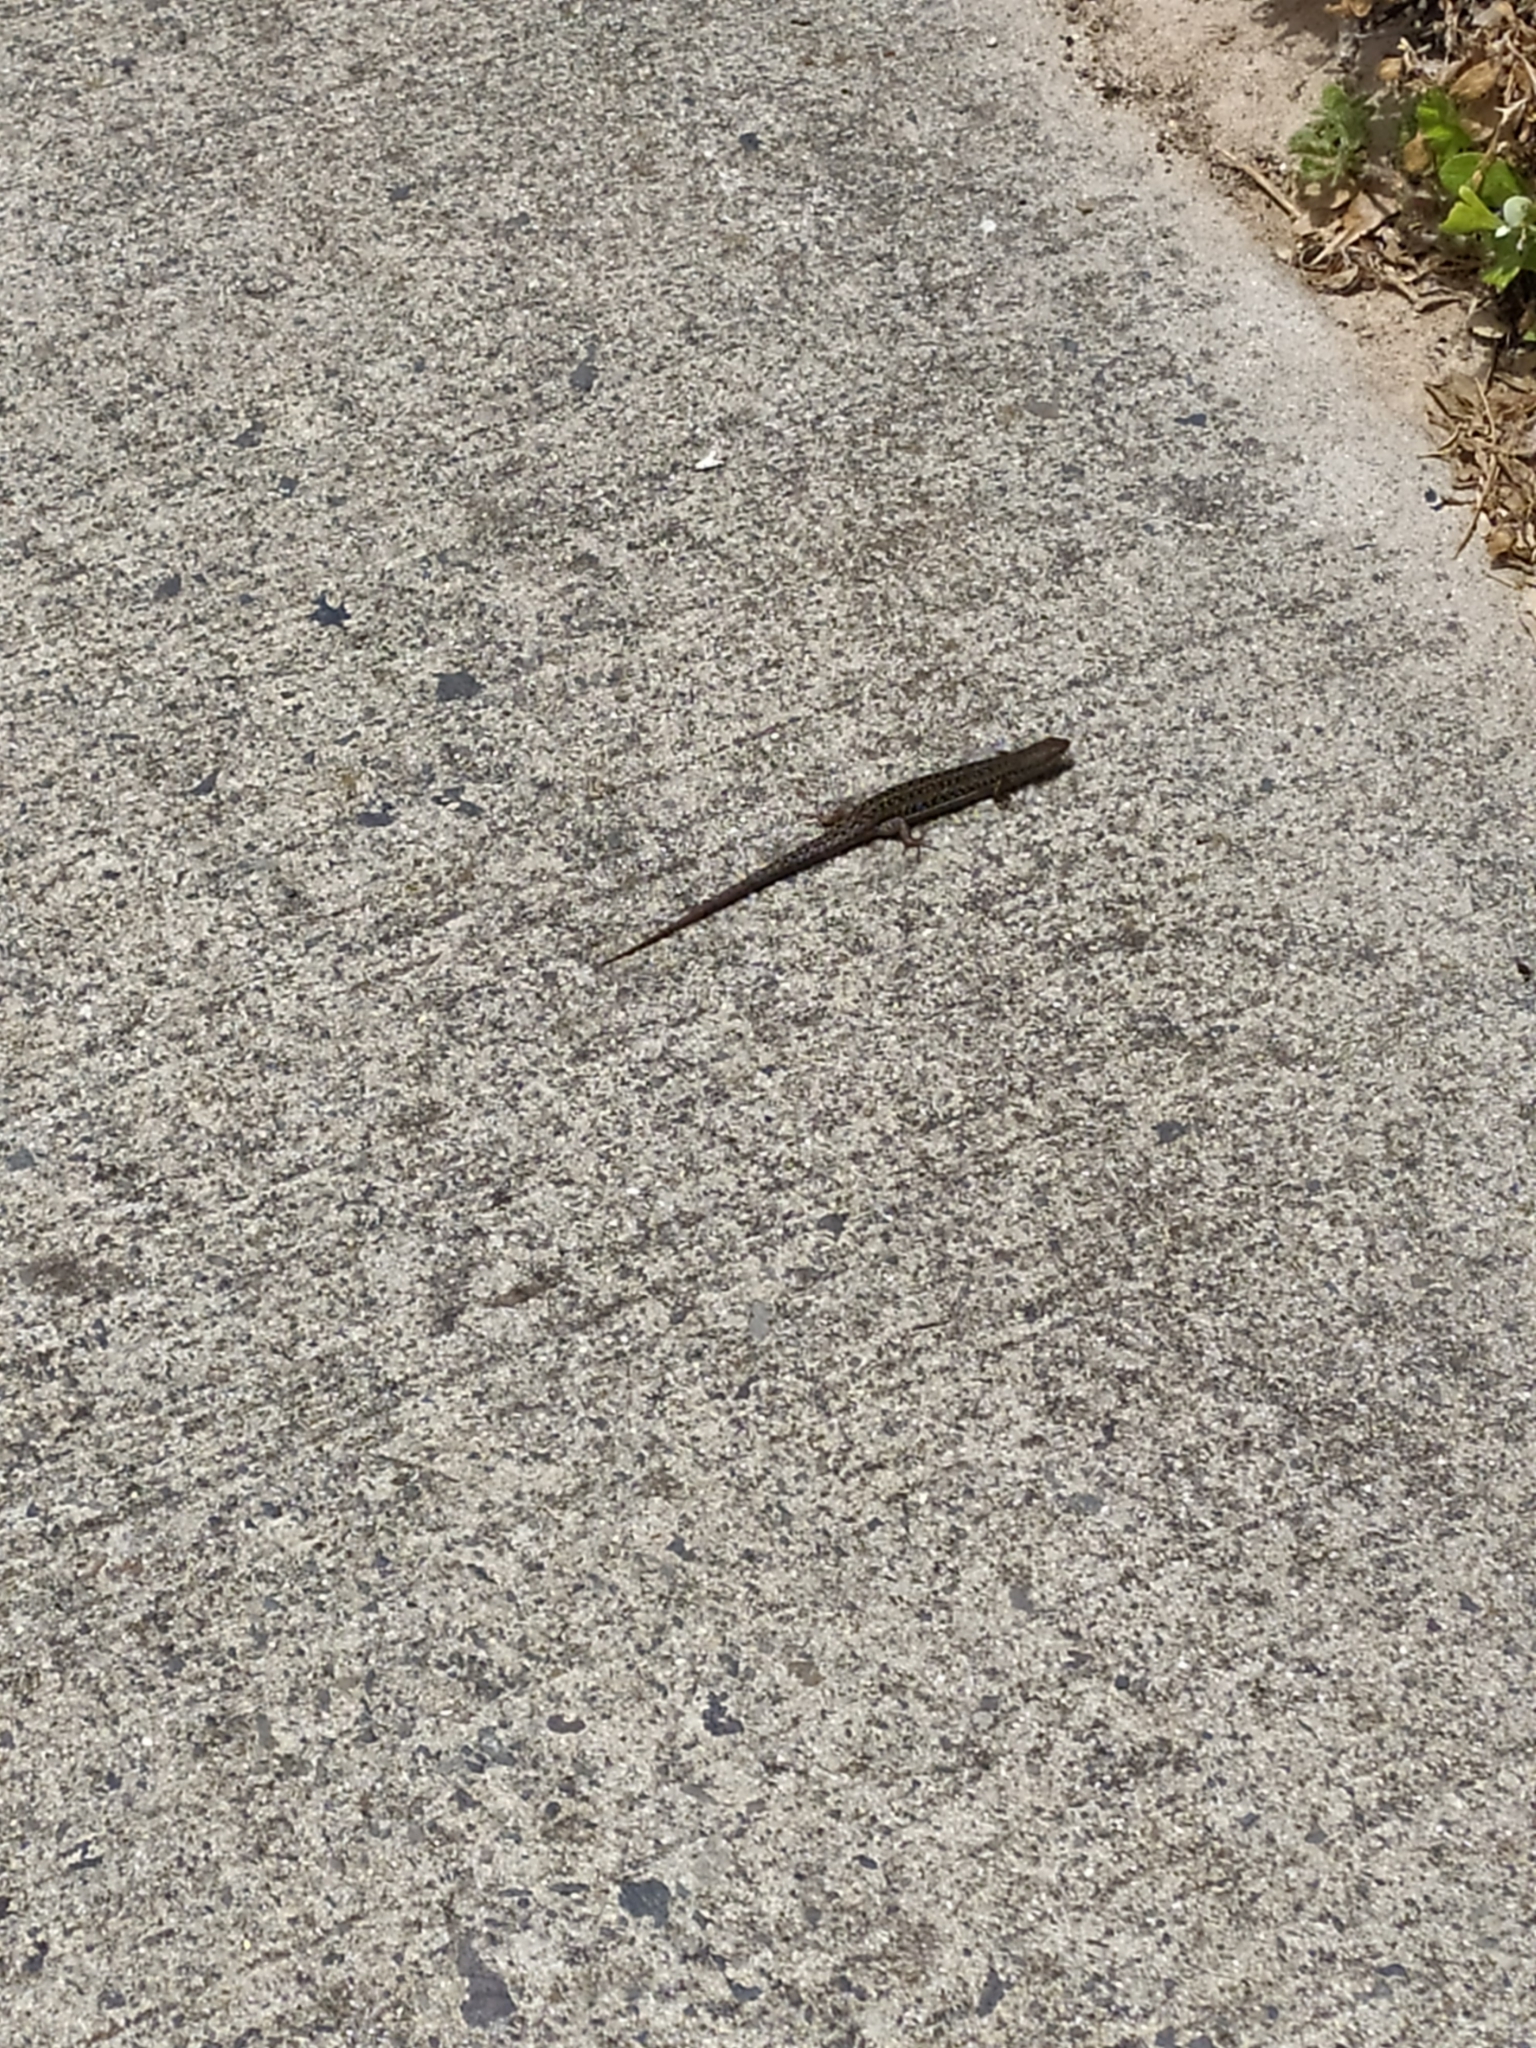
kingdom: Animalia
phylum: Chordata
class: Squamata
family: Scincidae
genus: Trachylepis
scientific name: Trachylepis capensis
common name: Cape skink
